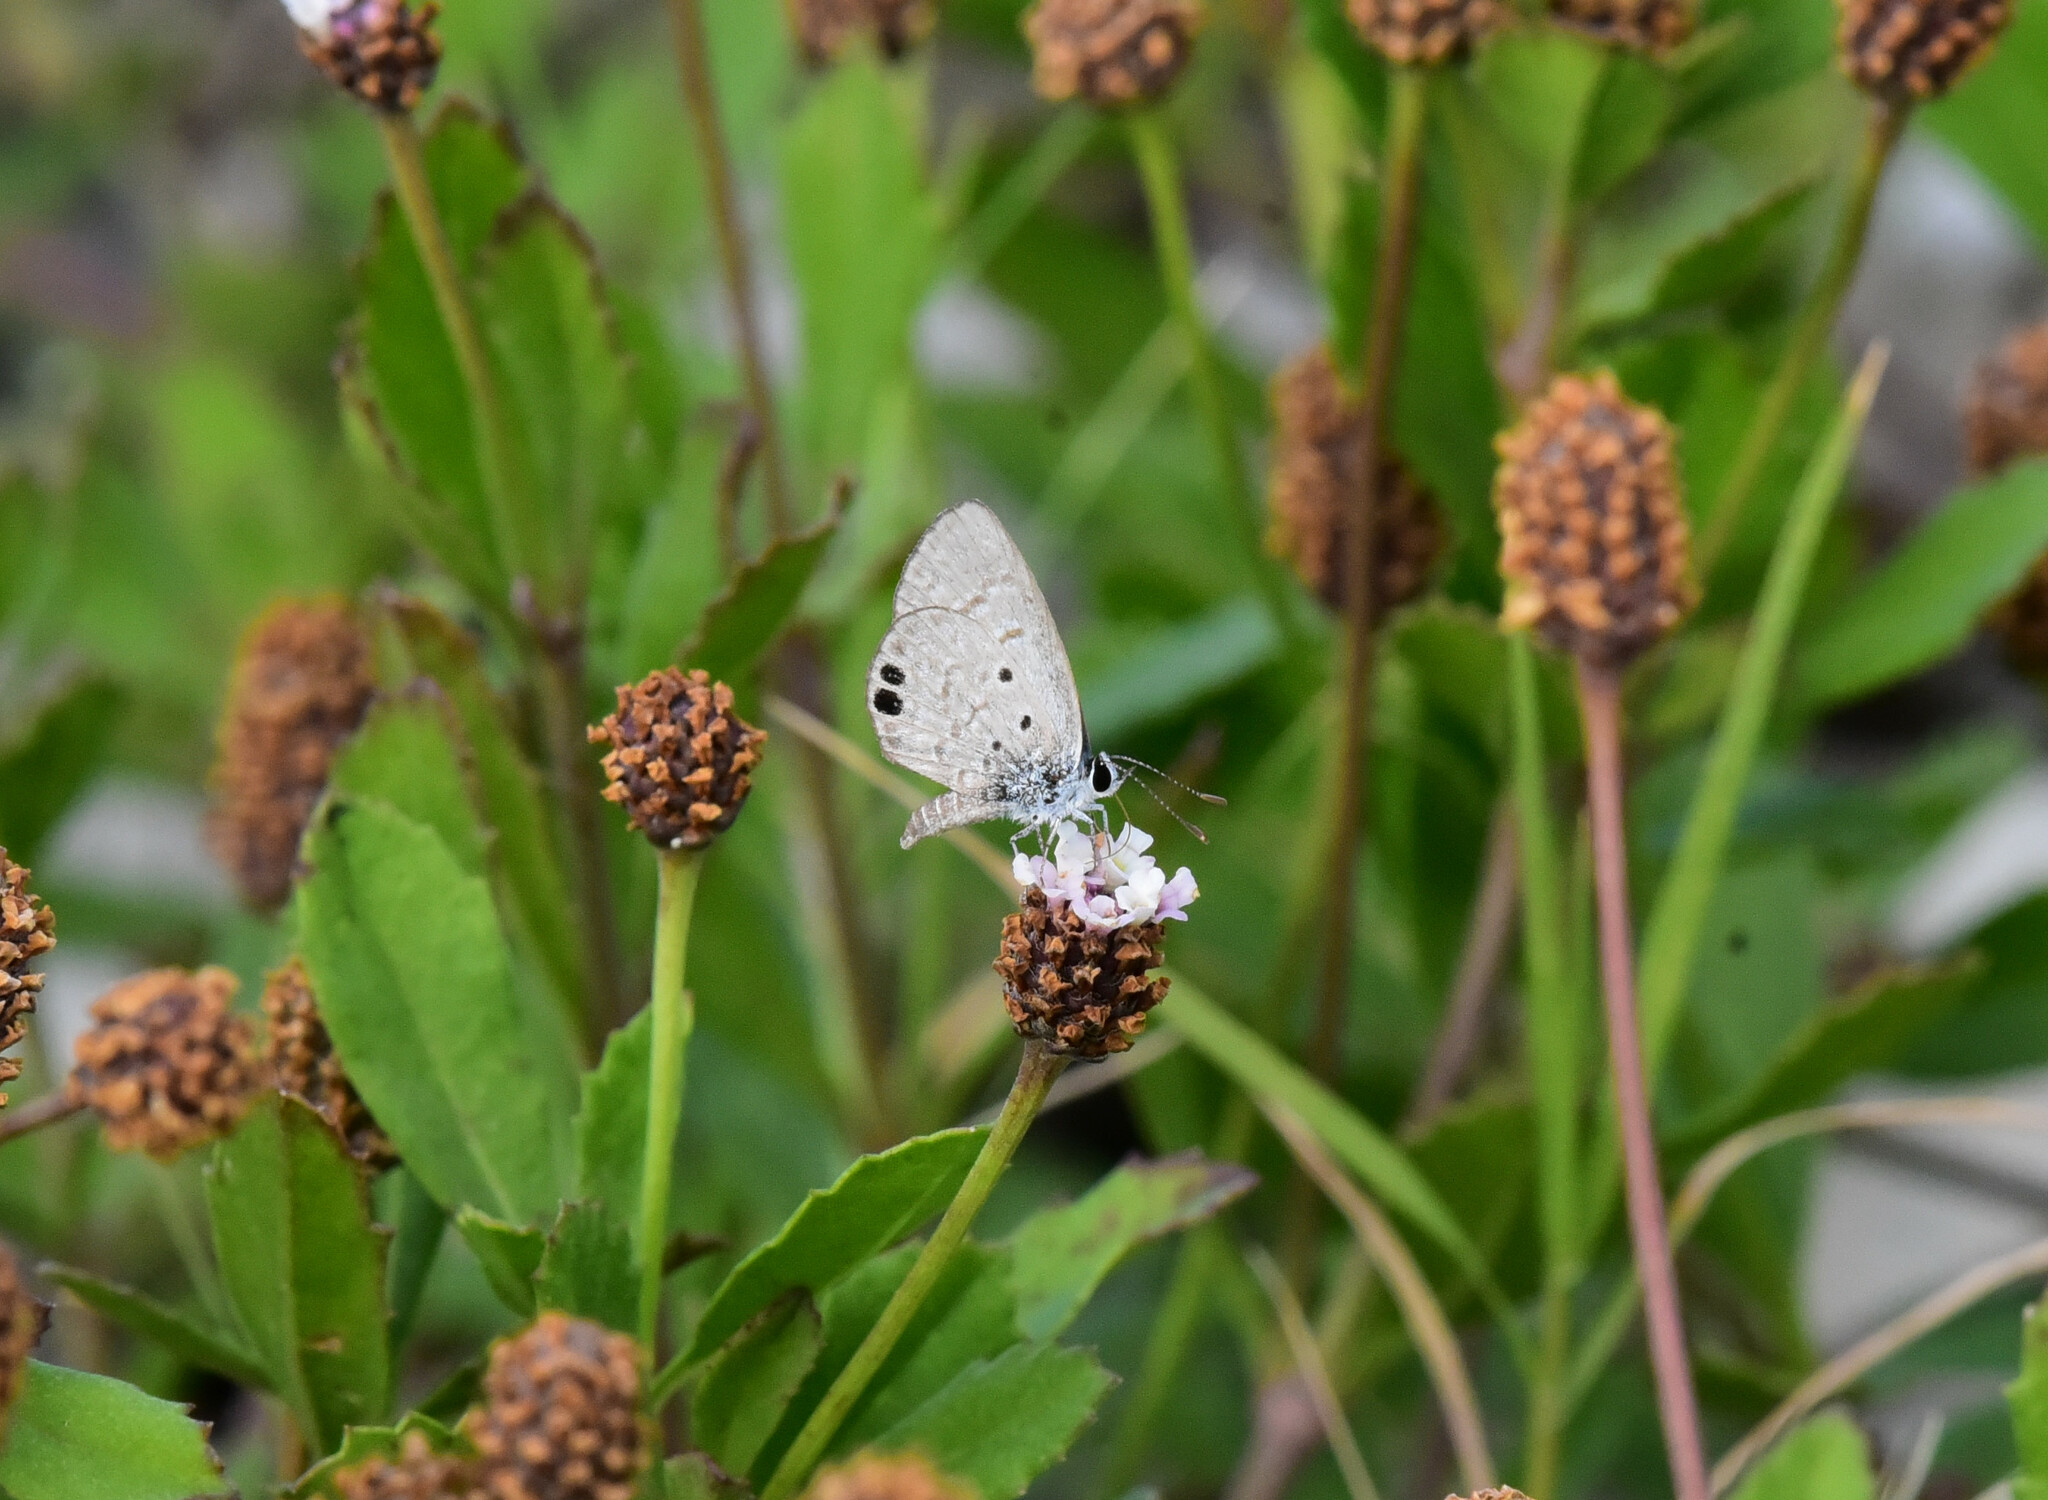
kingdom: Animalia
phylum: Arthropoda
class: Insecta
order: Lepidoptera
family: Lycaenidae
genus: Hemiargus
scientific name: Hemiargus ceraunus
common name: Ceraunus blue
